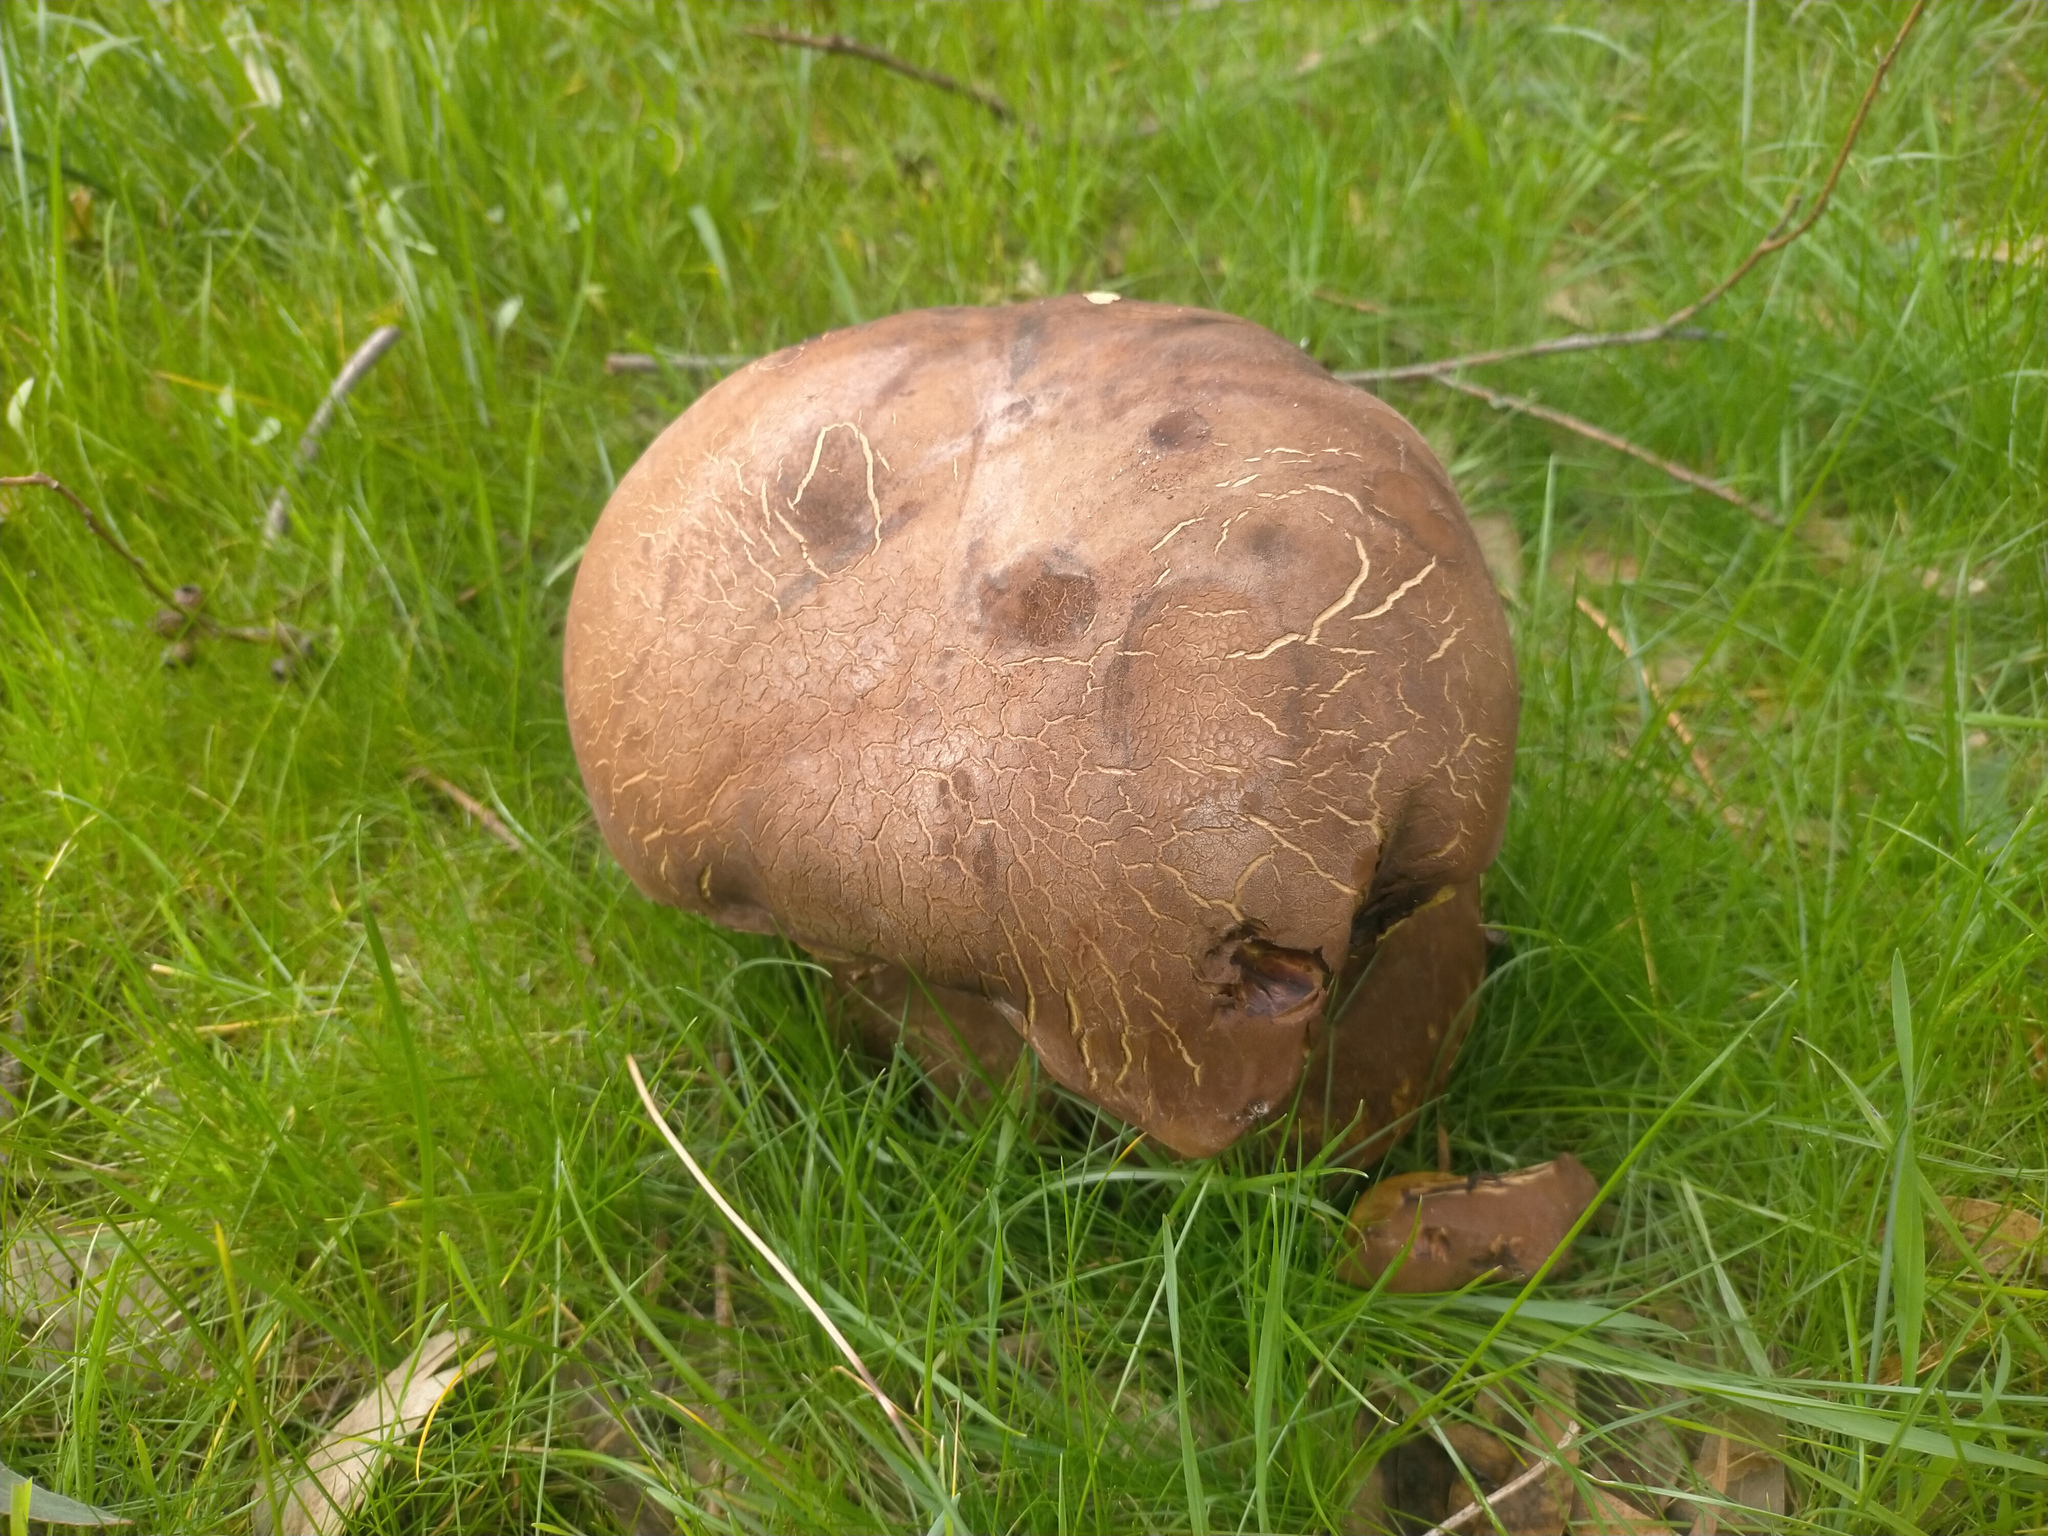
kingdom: Fungi
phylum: Basidiomycota
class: Agaricomycetes
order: Boletales
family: Boletinellaceae
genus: Phlebopus
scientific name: Phlebopus marginatus
